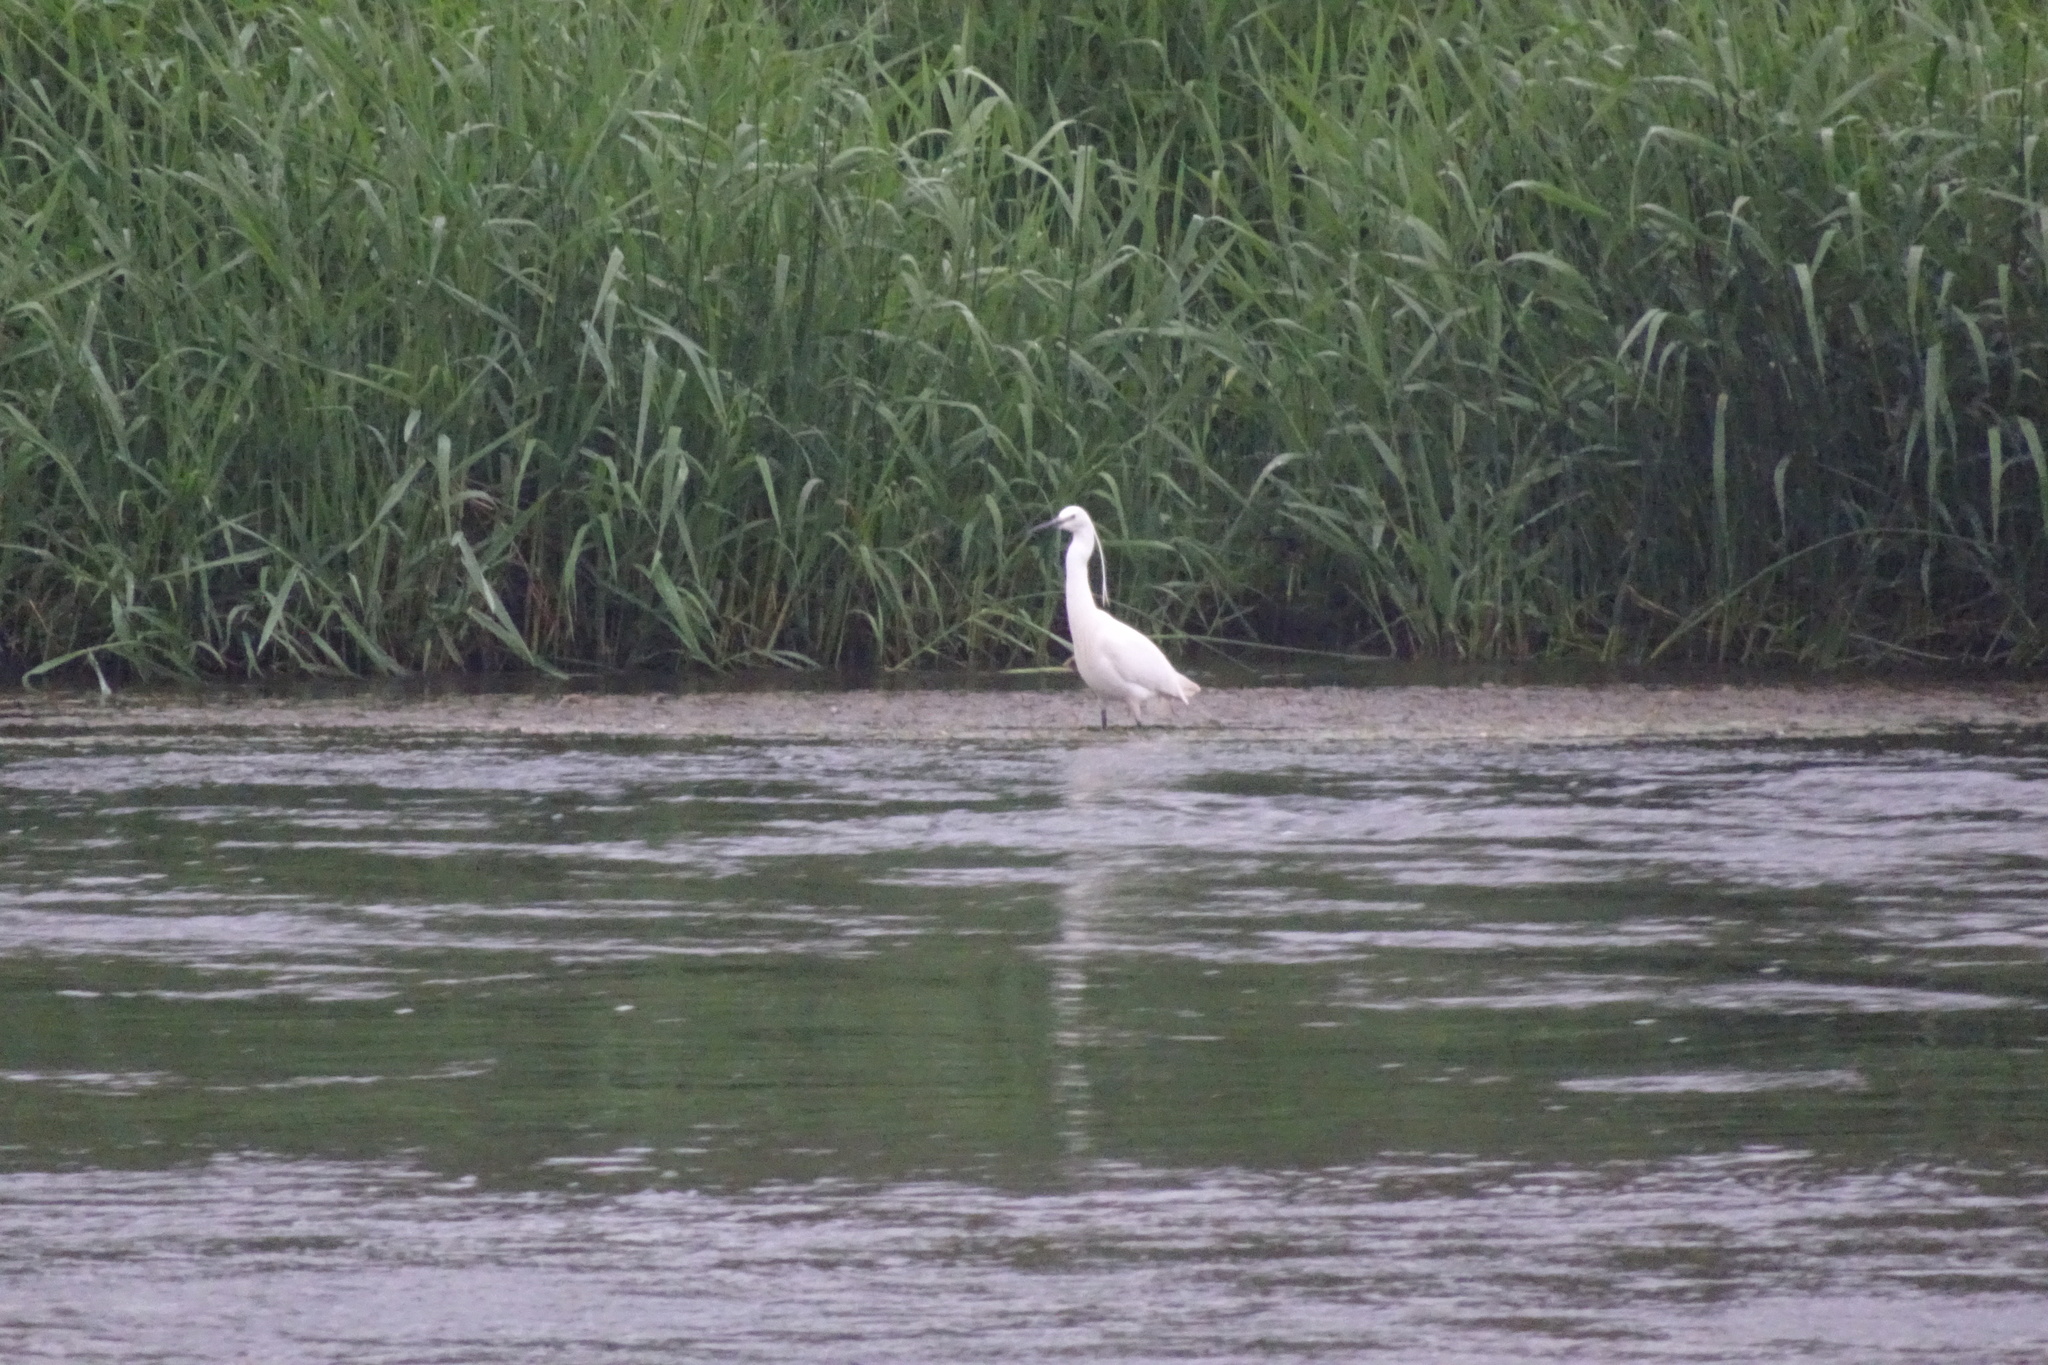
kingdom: Animalia
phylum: Chordata
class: Aves
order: Pelecaniformes
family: Ardeidae
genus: Egretta
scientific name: Egretta garzetta
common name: Little egret
